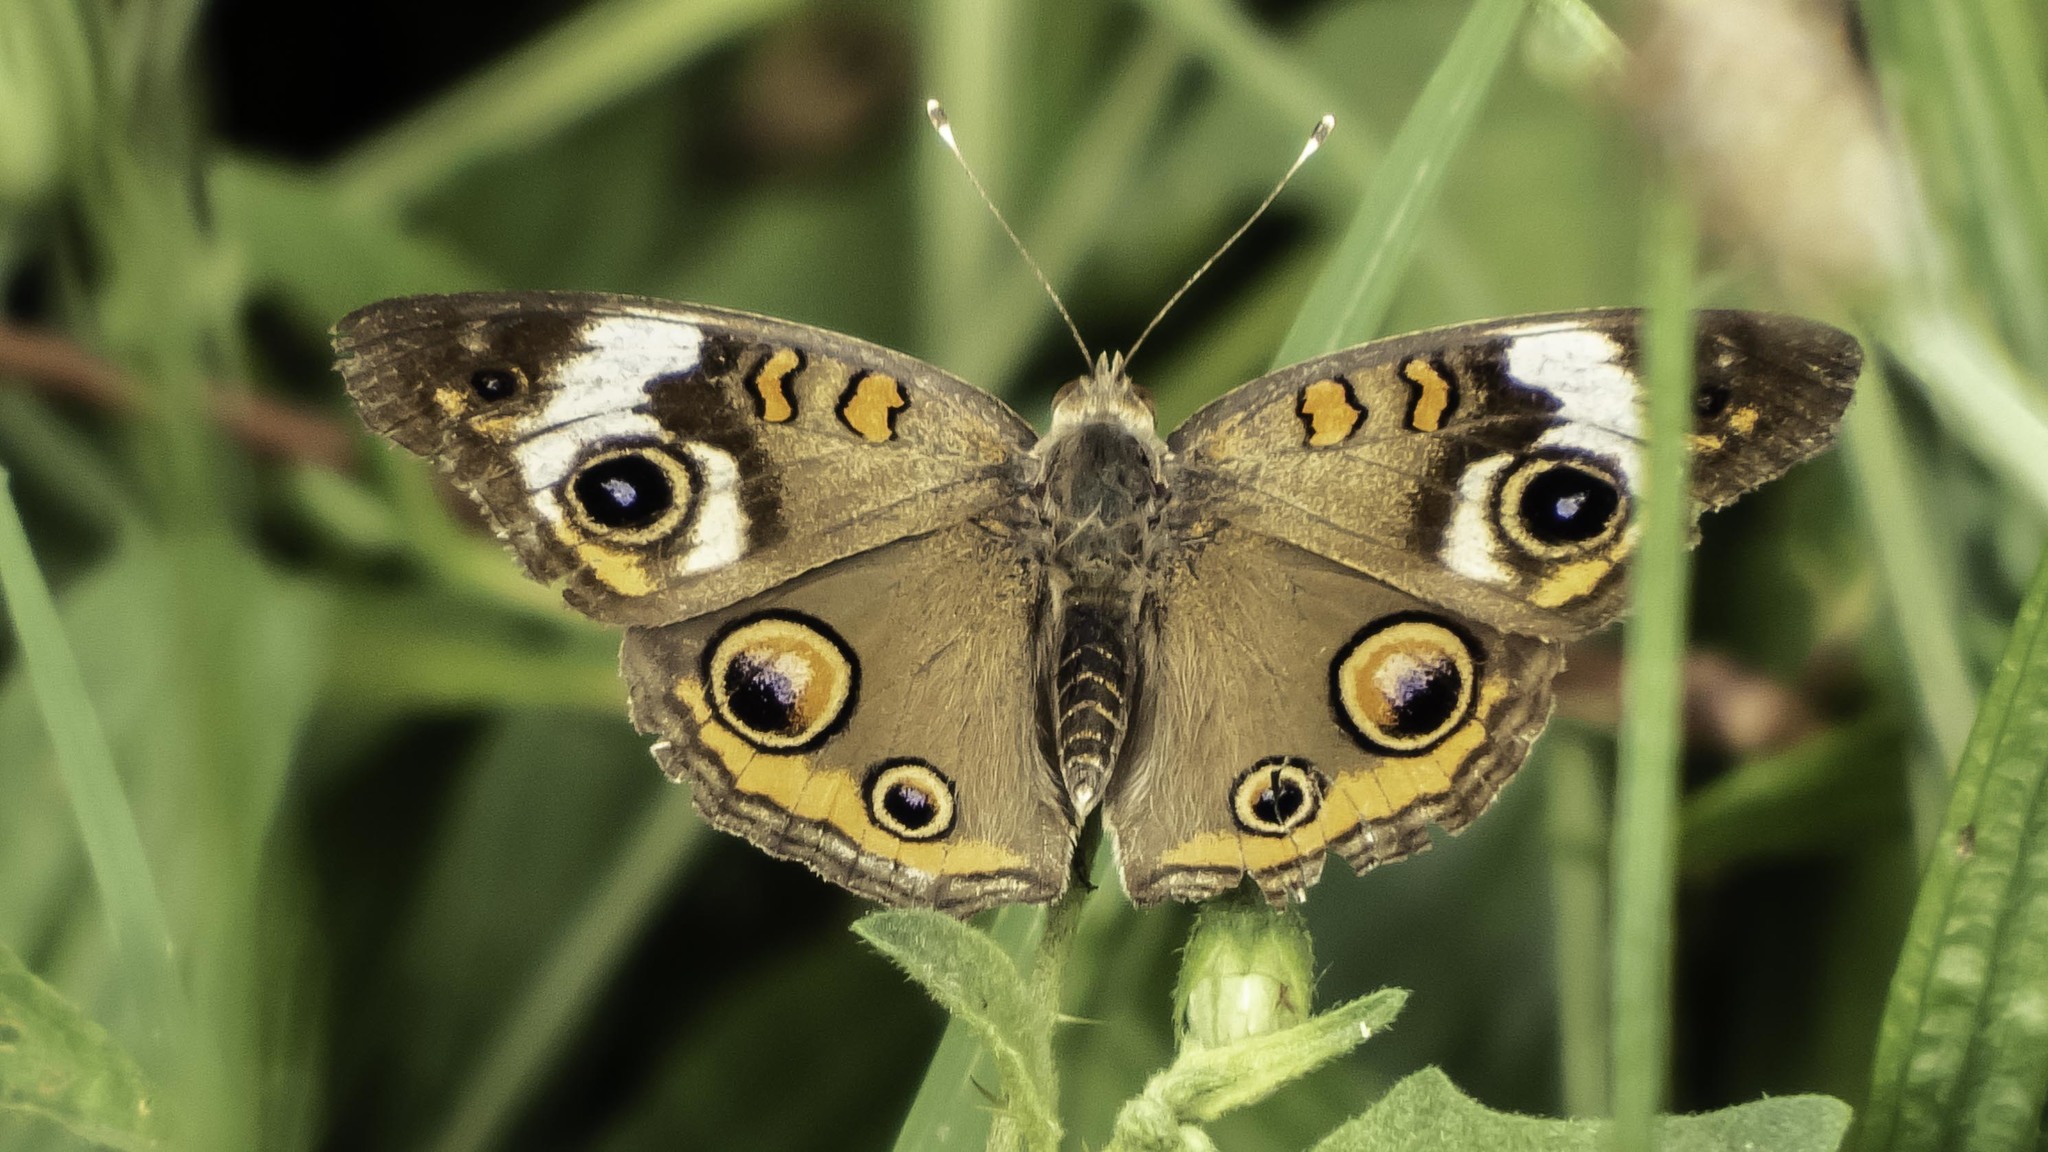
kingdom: Animalia
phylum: Arthropoda
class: Insecta
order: Lepidoptera
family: Nymphalidae
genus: Junonia
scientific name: Junonia coenia
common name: Common buckeye
